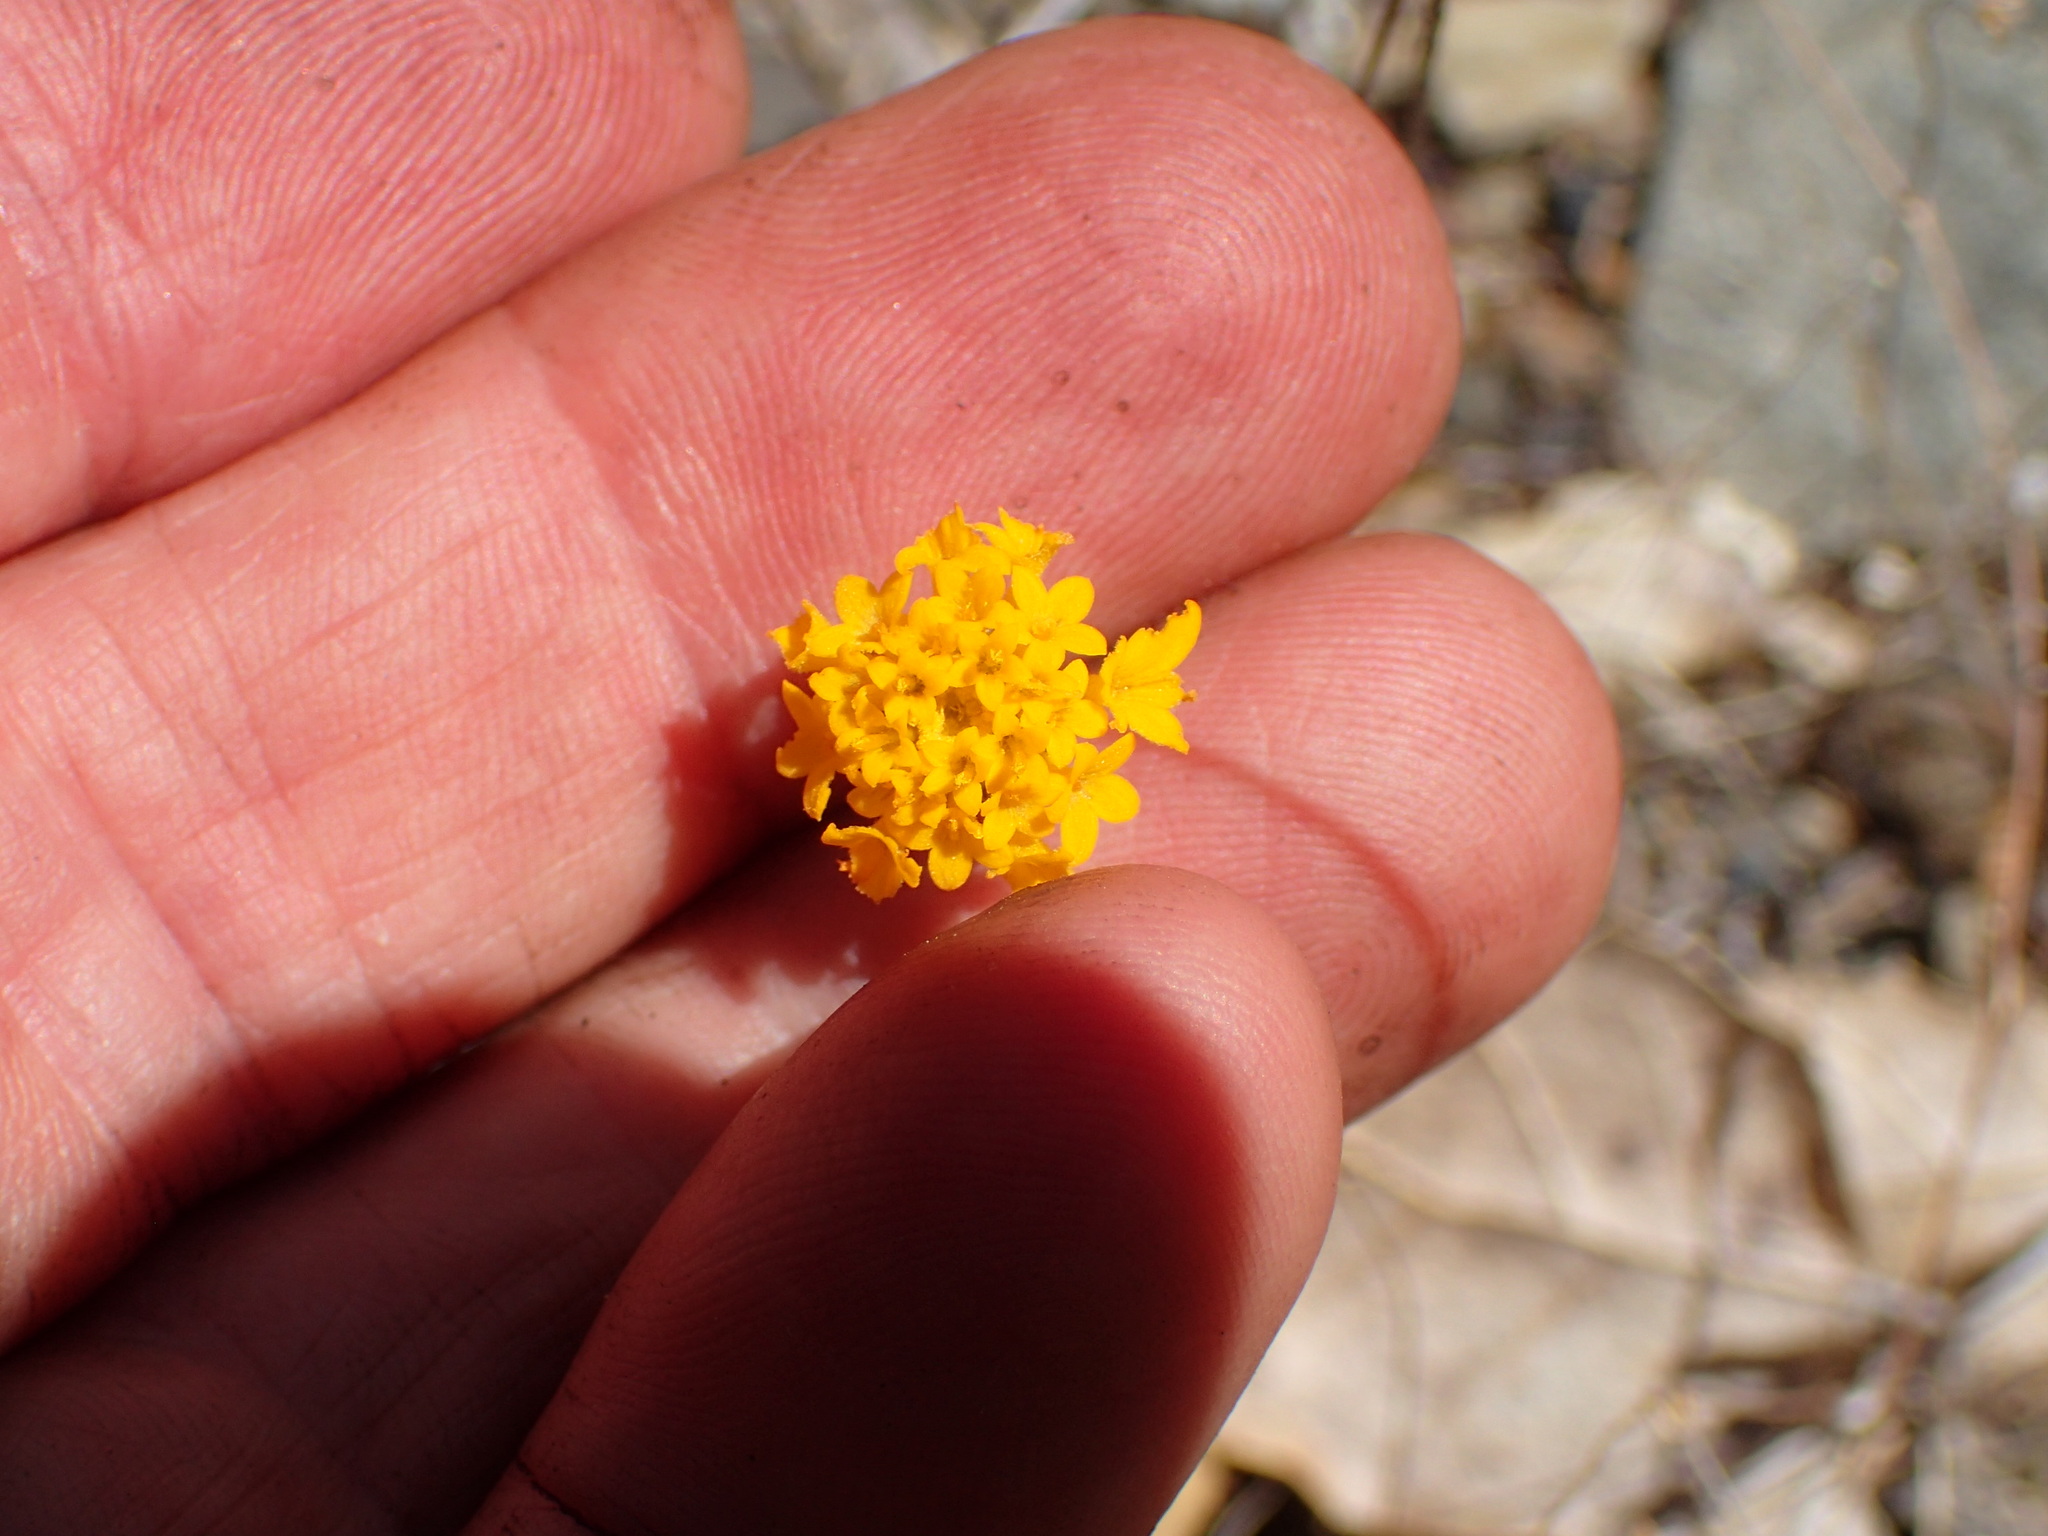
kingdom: Plantae
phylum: Tracheophyta
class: Magnoliopsida
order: Asterales
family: Asteraceae
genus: Chaenactis
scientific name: Chaenactis glabriuscula
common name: Yellow pincushion
